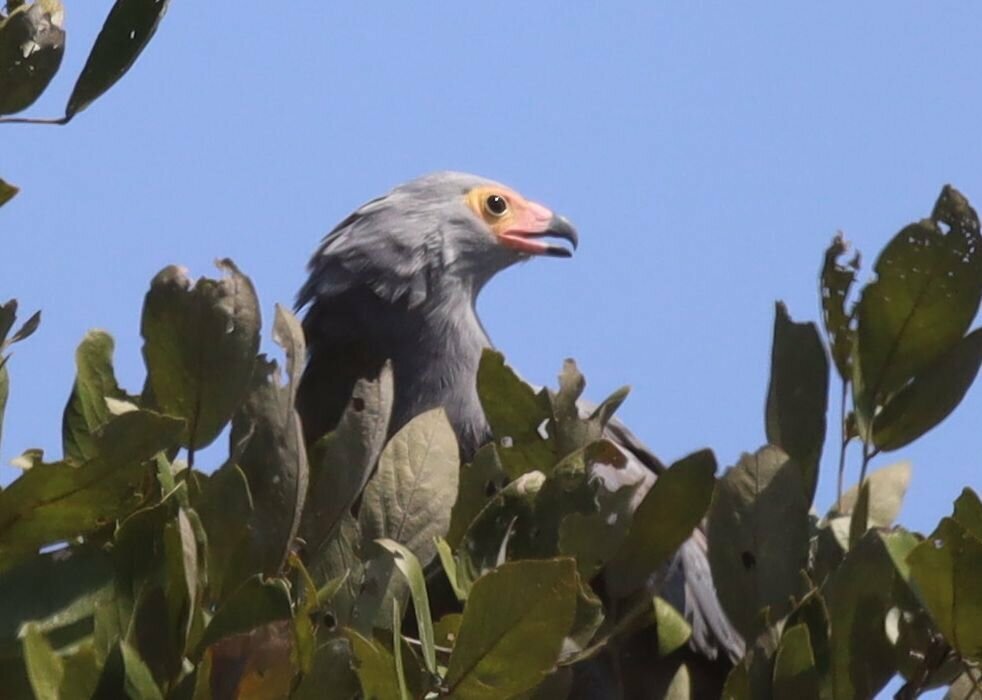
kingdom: Animalia
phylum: Chordata
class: Aves
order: Accipitriformes
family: Accipitridae
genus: Polyboroides
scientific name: Polyboroides typus
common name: African harrier-hawk
